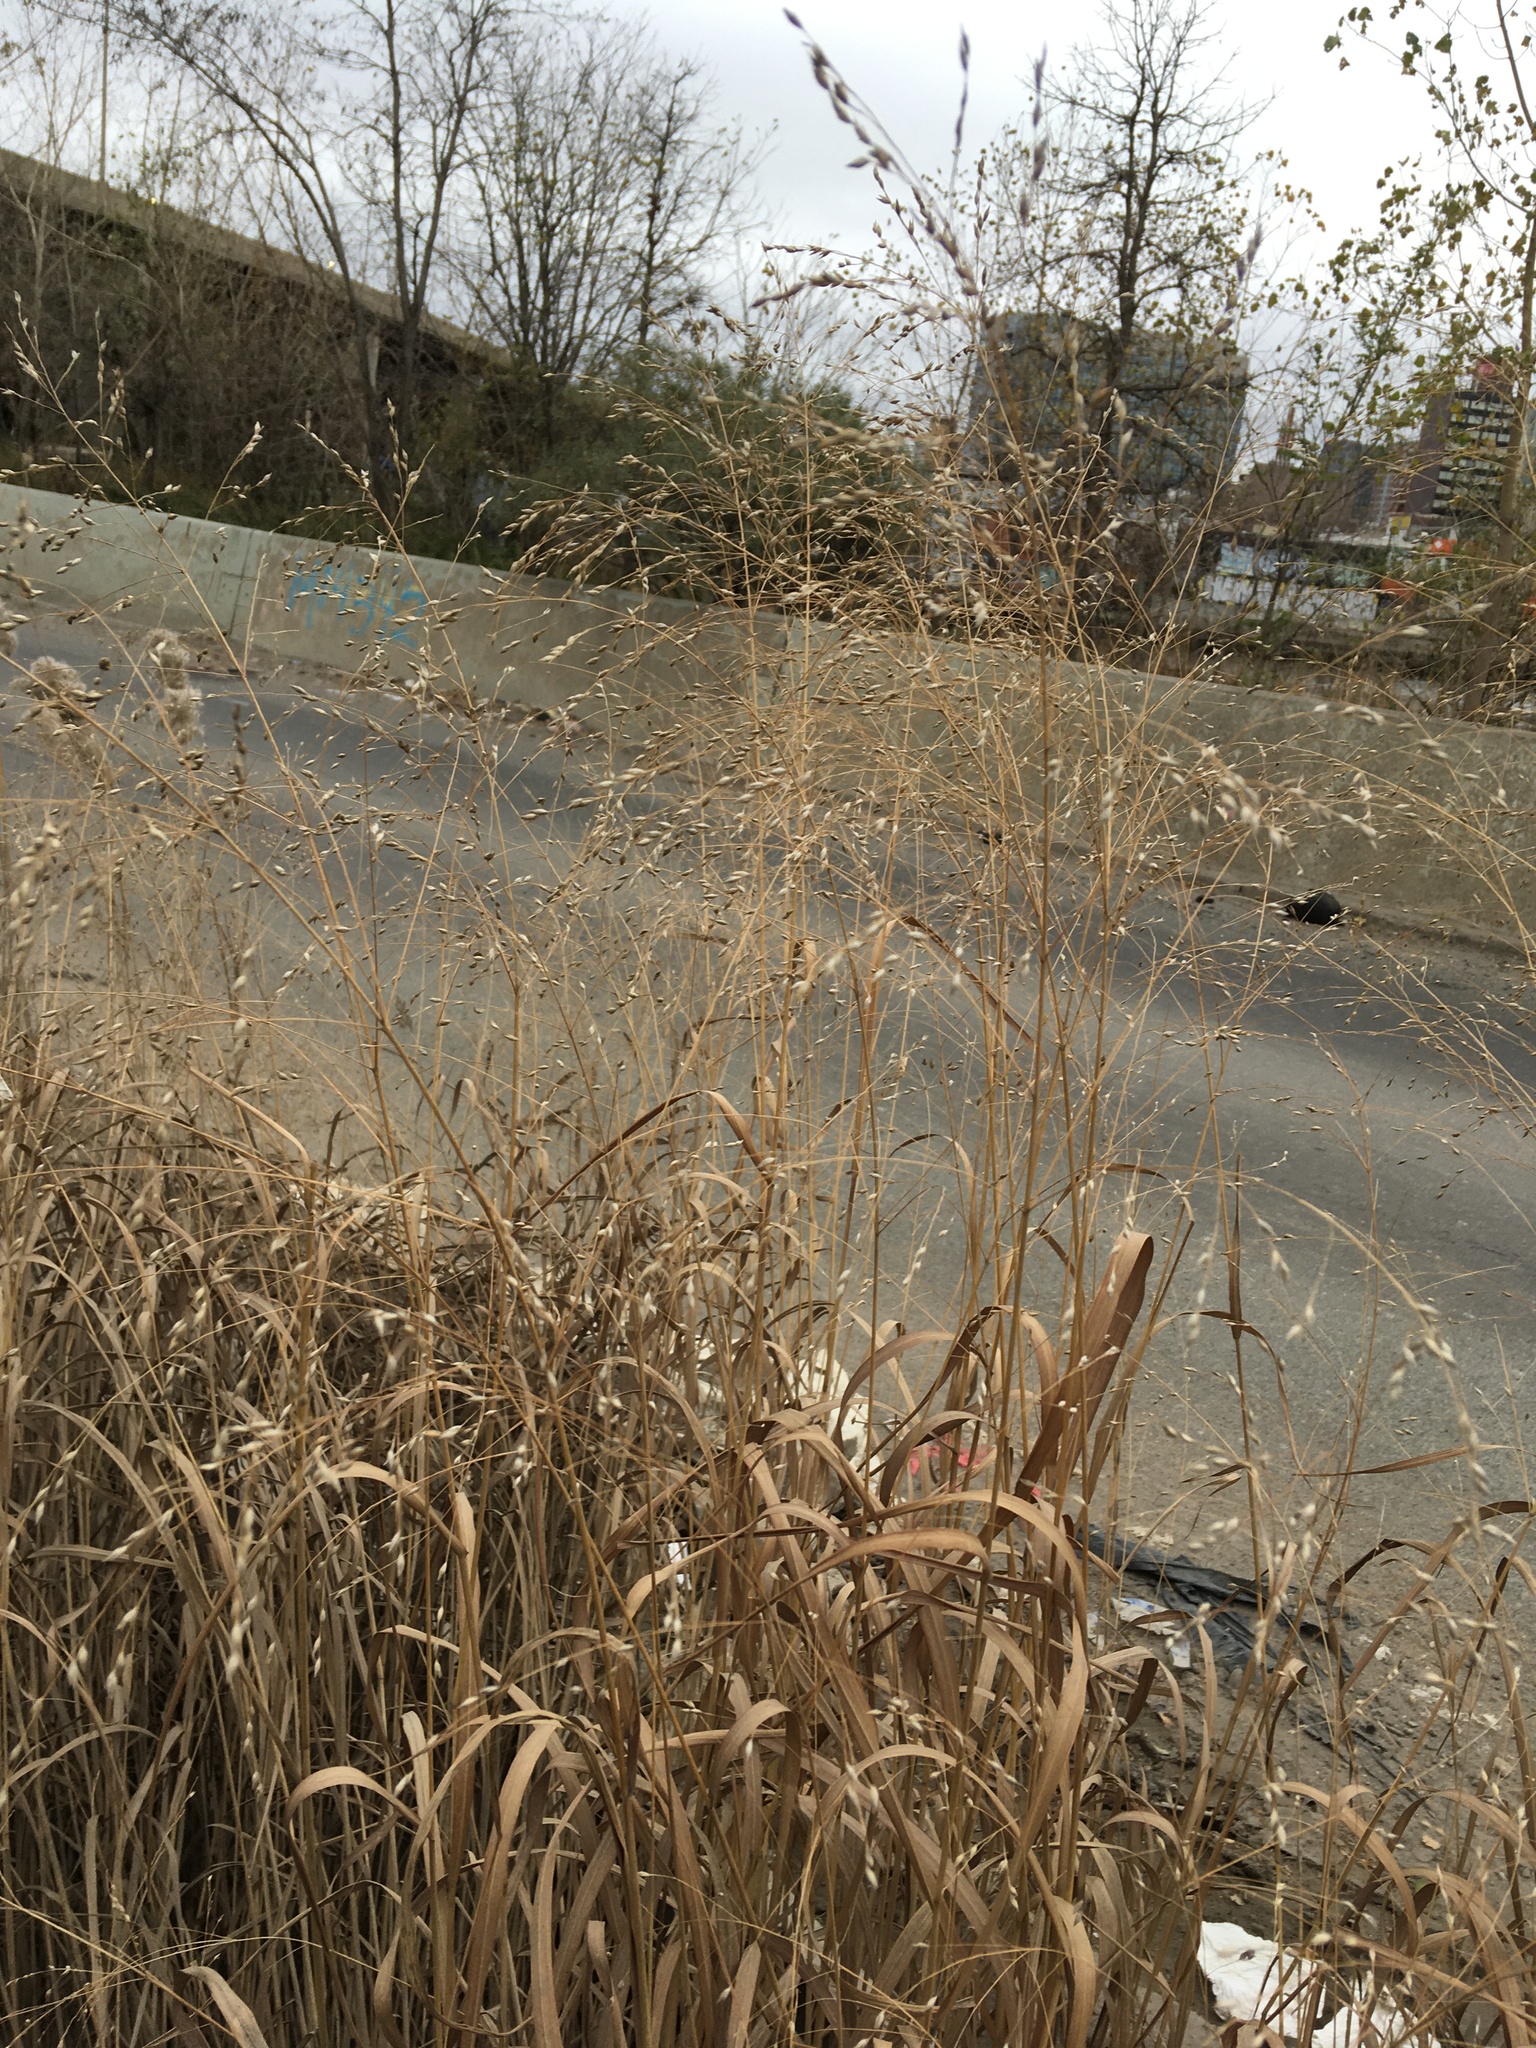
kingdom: Plantae
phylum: Tracheophyta
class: Liliopsida
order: Poales
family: Poaceae
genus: Panicum
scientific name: Panicum virgatum
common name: Switchgrass
